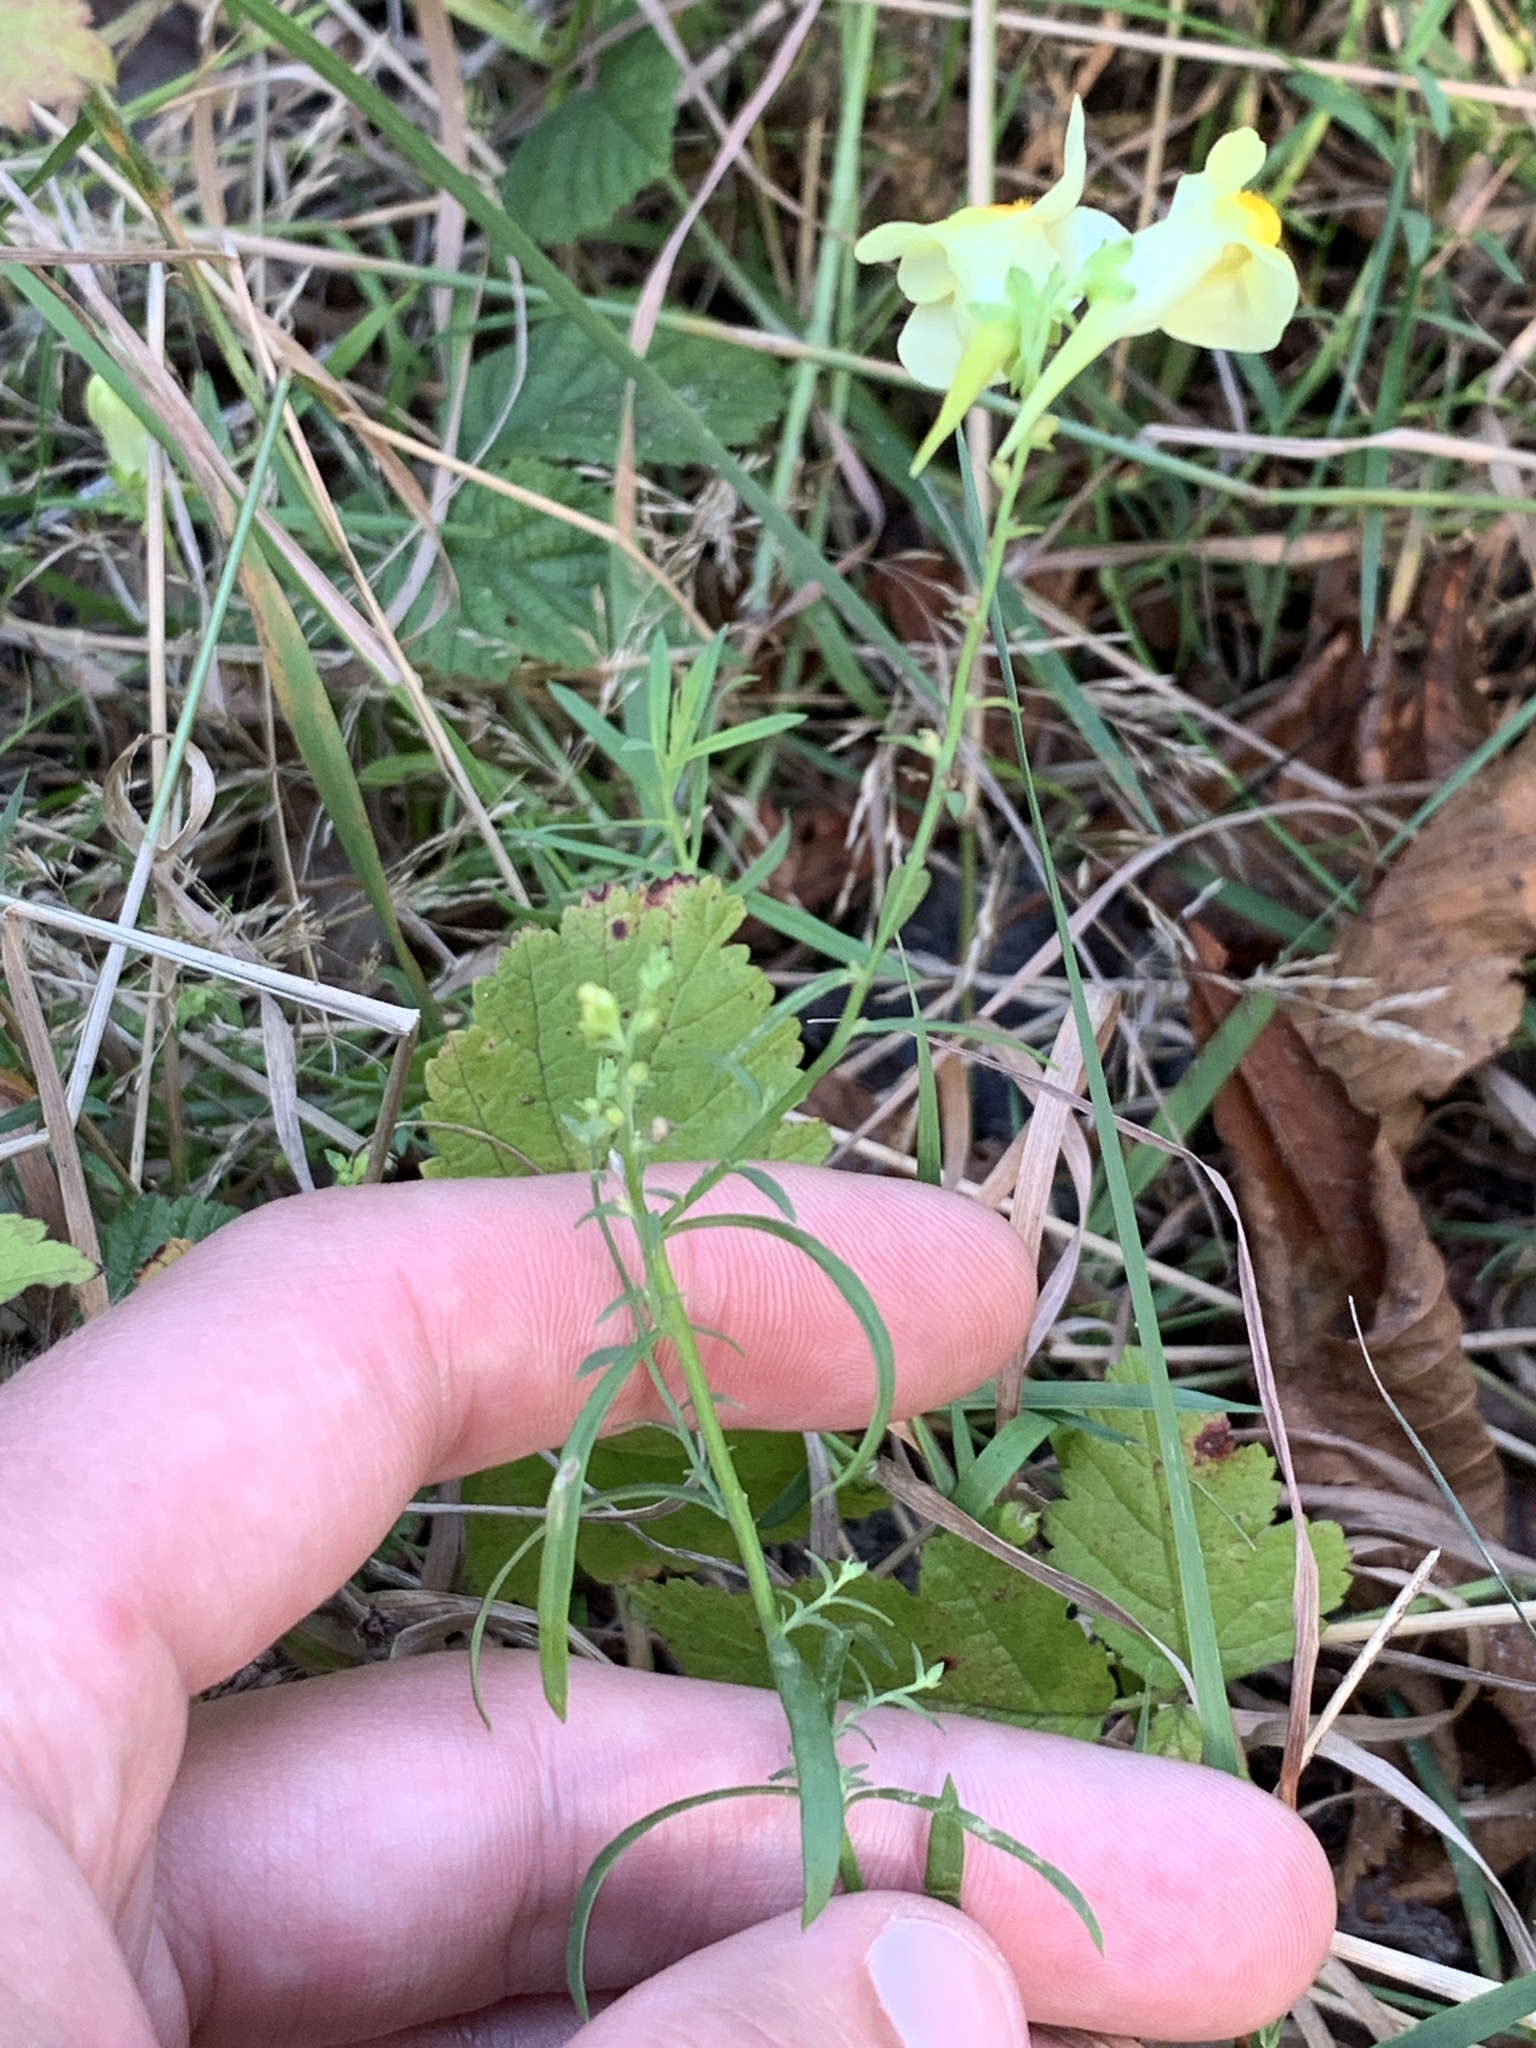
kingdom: Plantae
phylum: Tracheophyta
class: Magnoliopsida
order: Lamiales
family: Plantaginaceae
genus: Linaria
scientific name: Linaria vulgaris
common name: Butter and eggs
